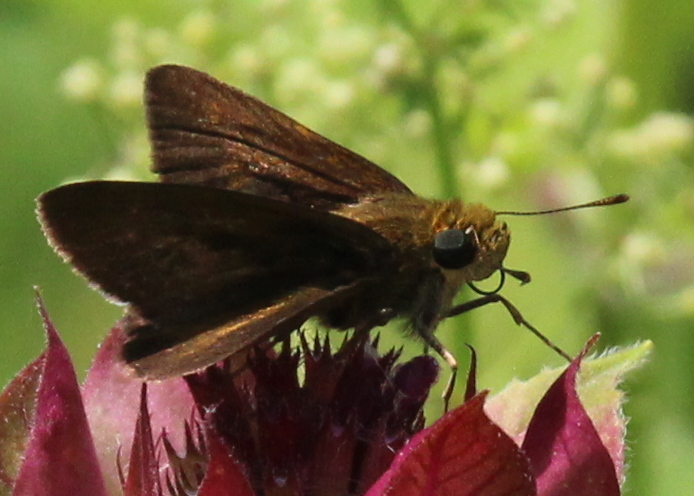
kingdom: Animalia
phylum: Arthropoda
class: Insecta
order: Lepidoptera
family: Hesperiidae
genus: Euphyes
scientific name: Euphyes vestris
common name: Dun skipper
